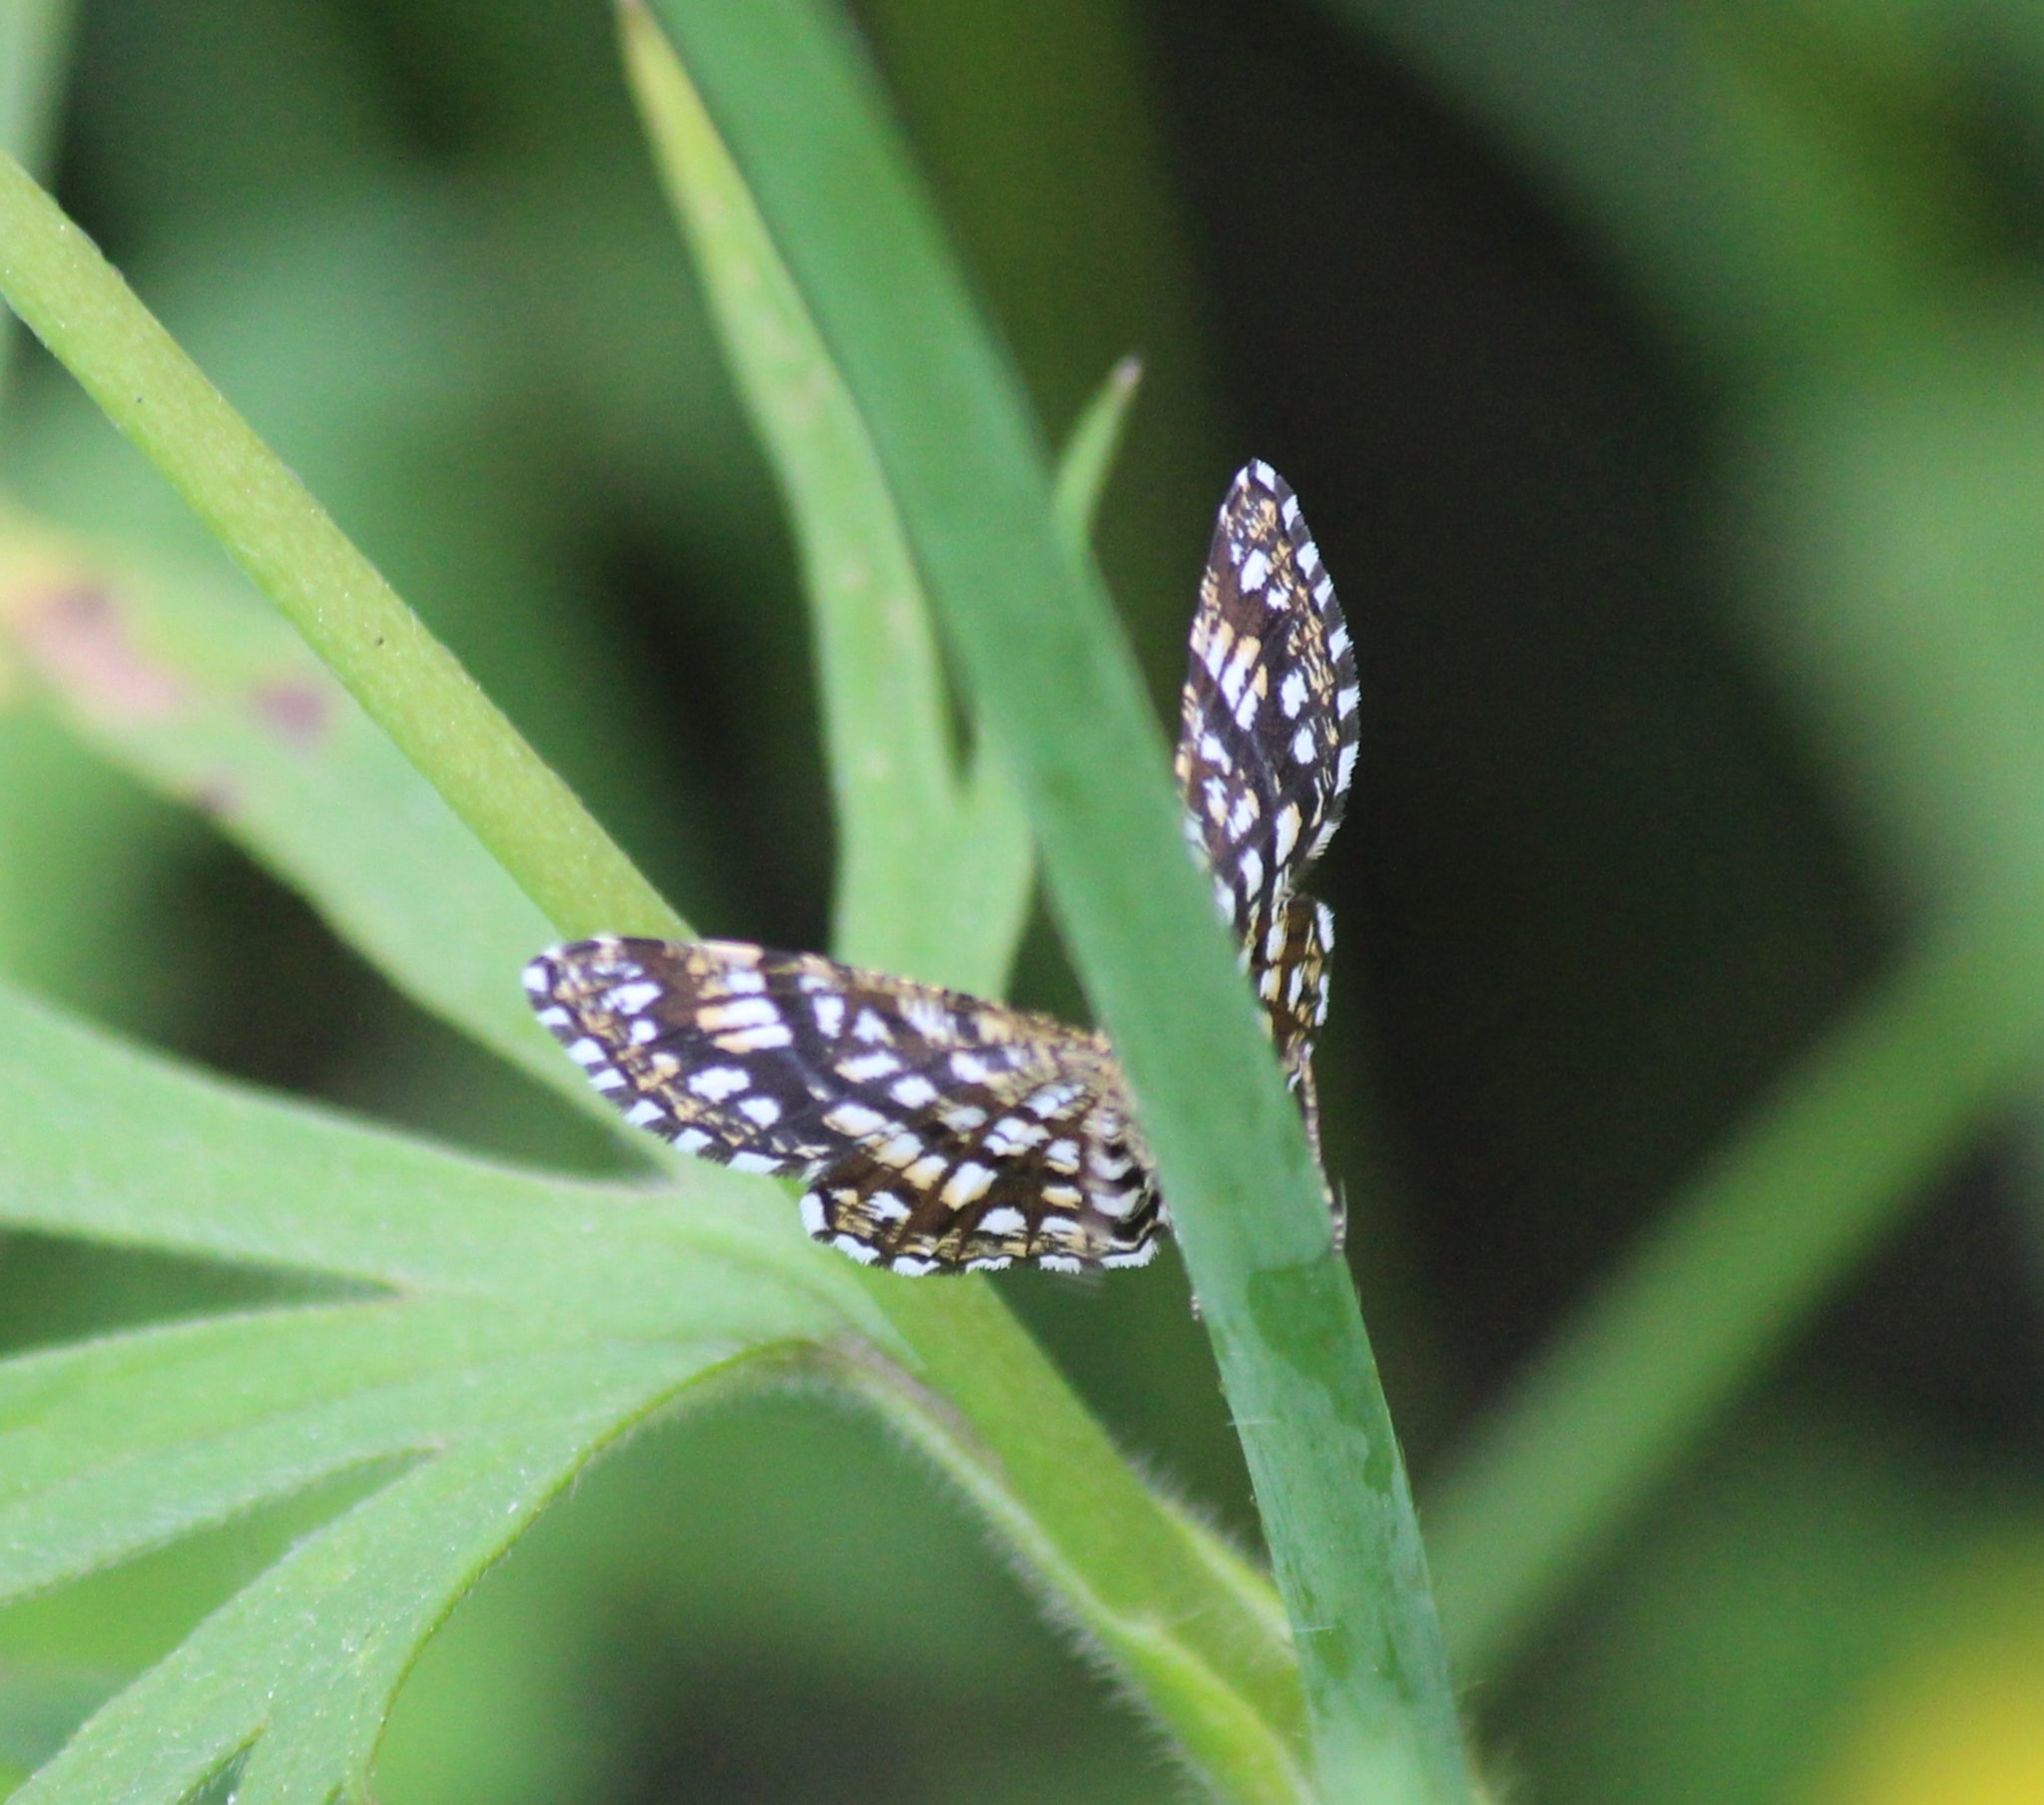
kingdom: Animalia
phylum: Arthropoda
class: Insecta
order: Lepidoptera
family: Geometridae
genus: Chiasmia
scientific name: Chiasmia clathrata
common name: Latticed heath
